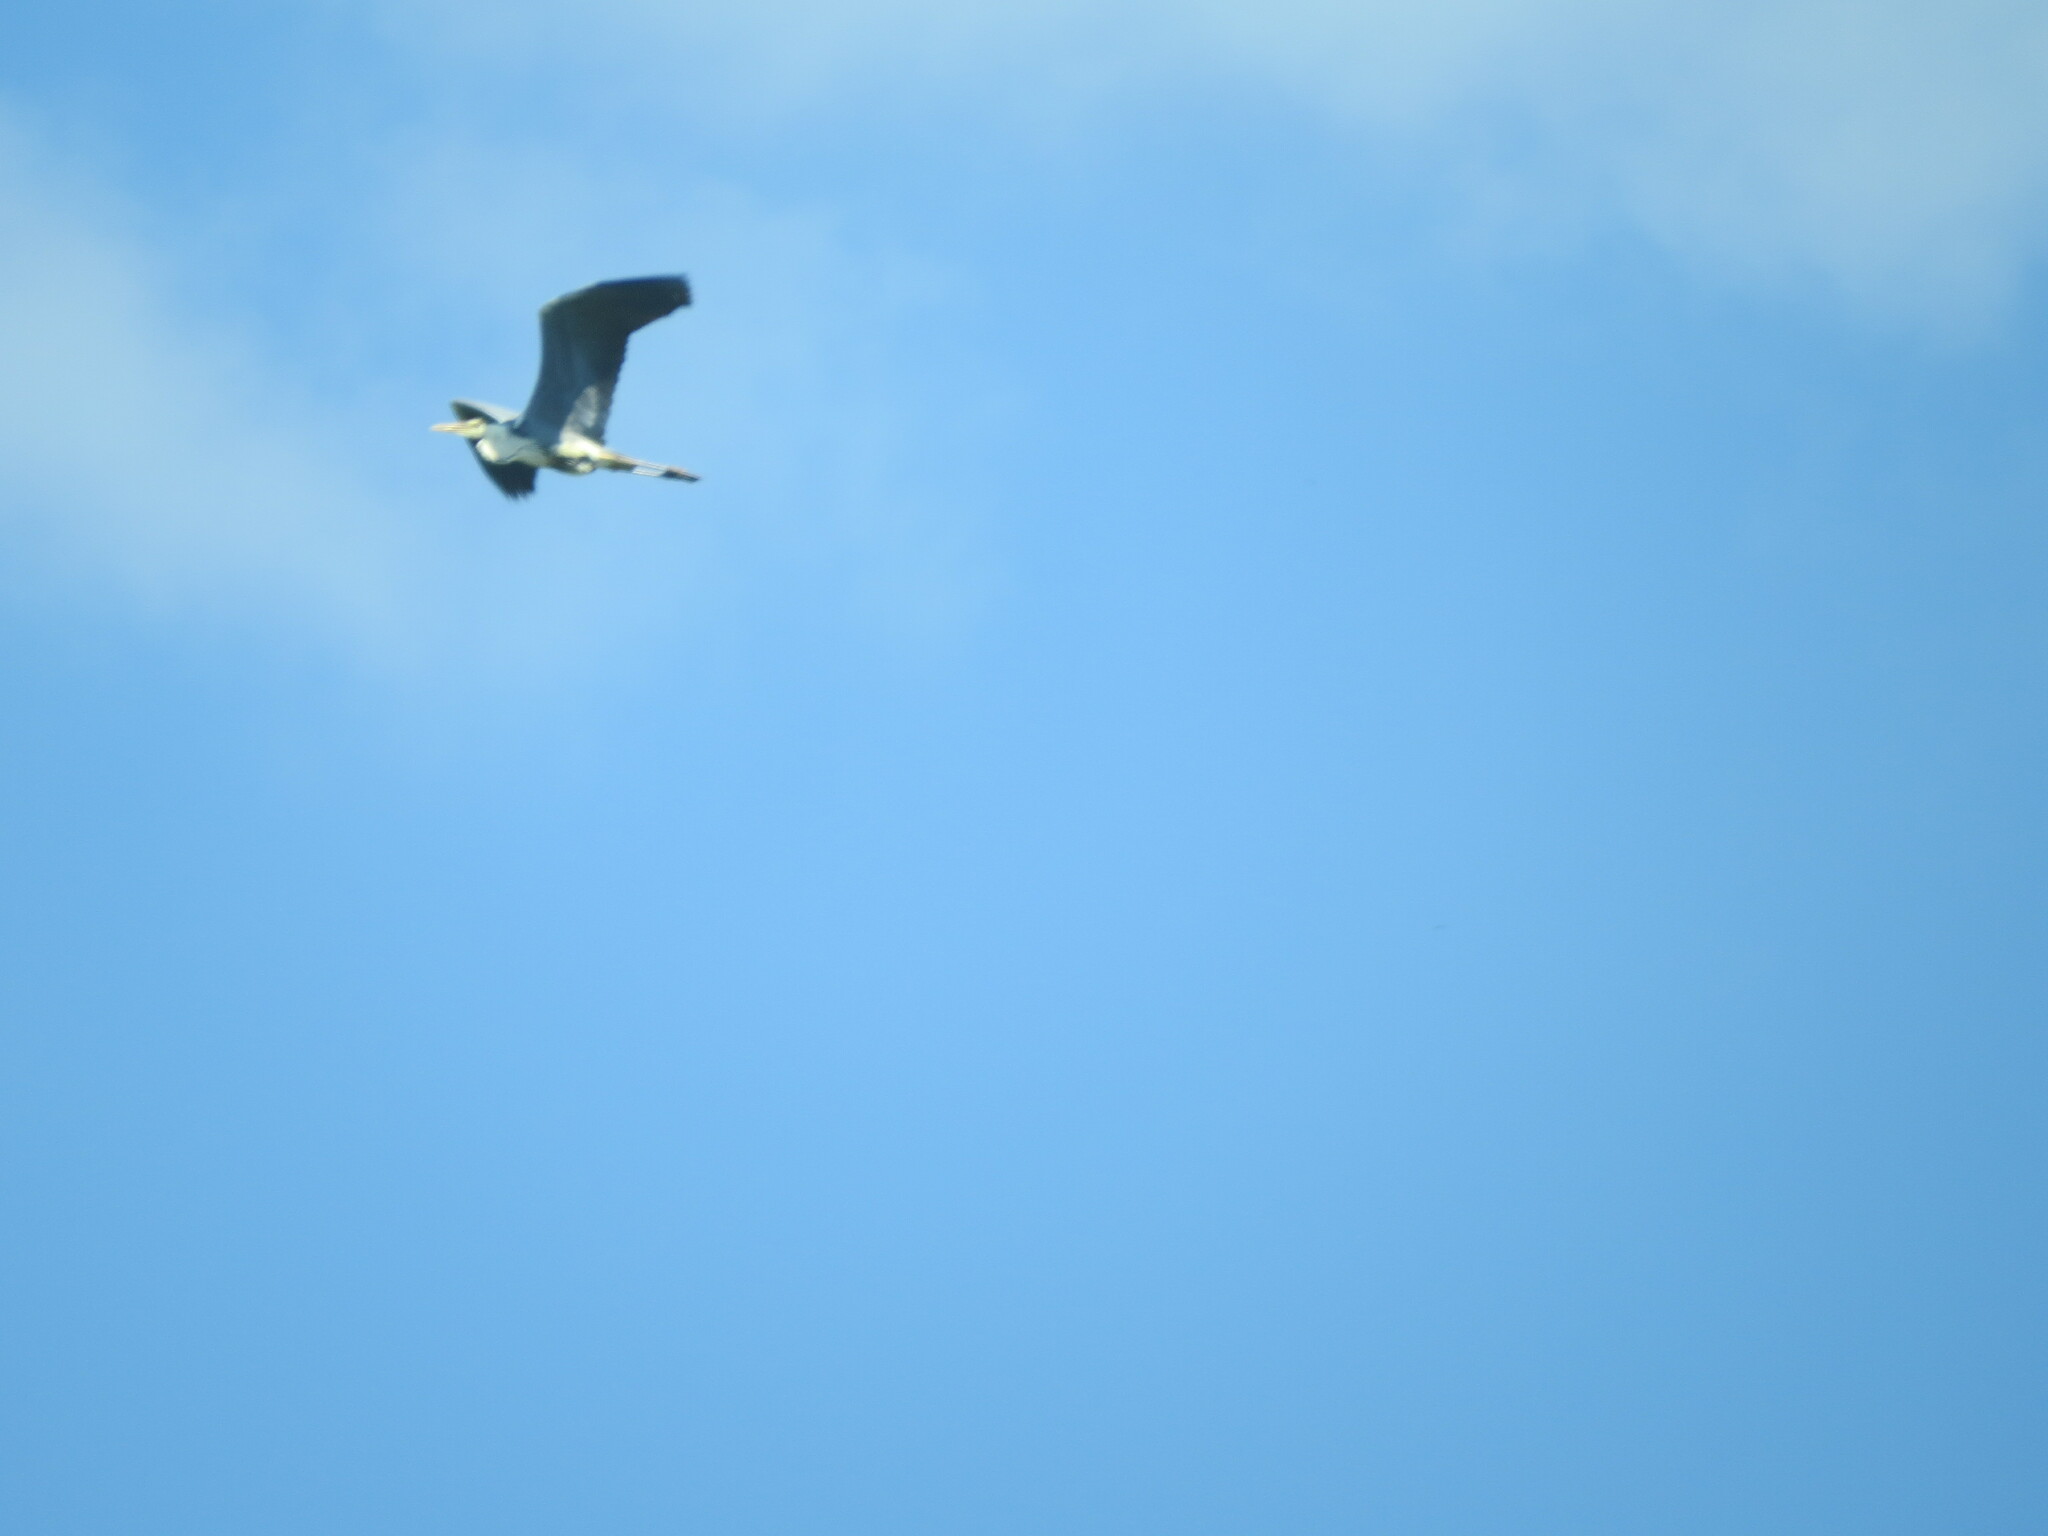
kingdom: Animalia
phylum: Chordata
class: Aves
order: Pelecaniformes
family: Ardeidae
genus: Ardea
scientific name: Ardea cinerea
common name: Grey heron
